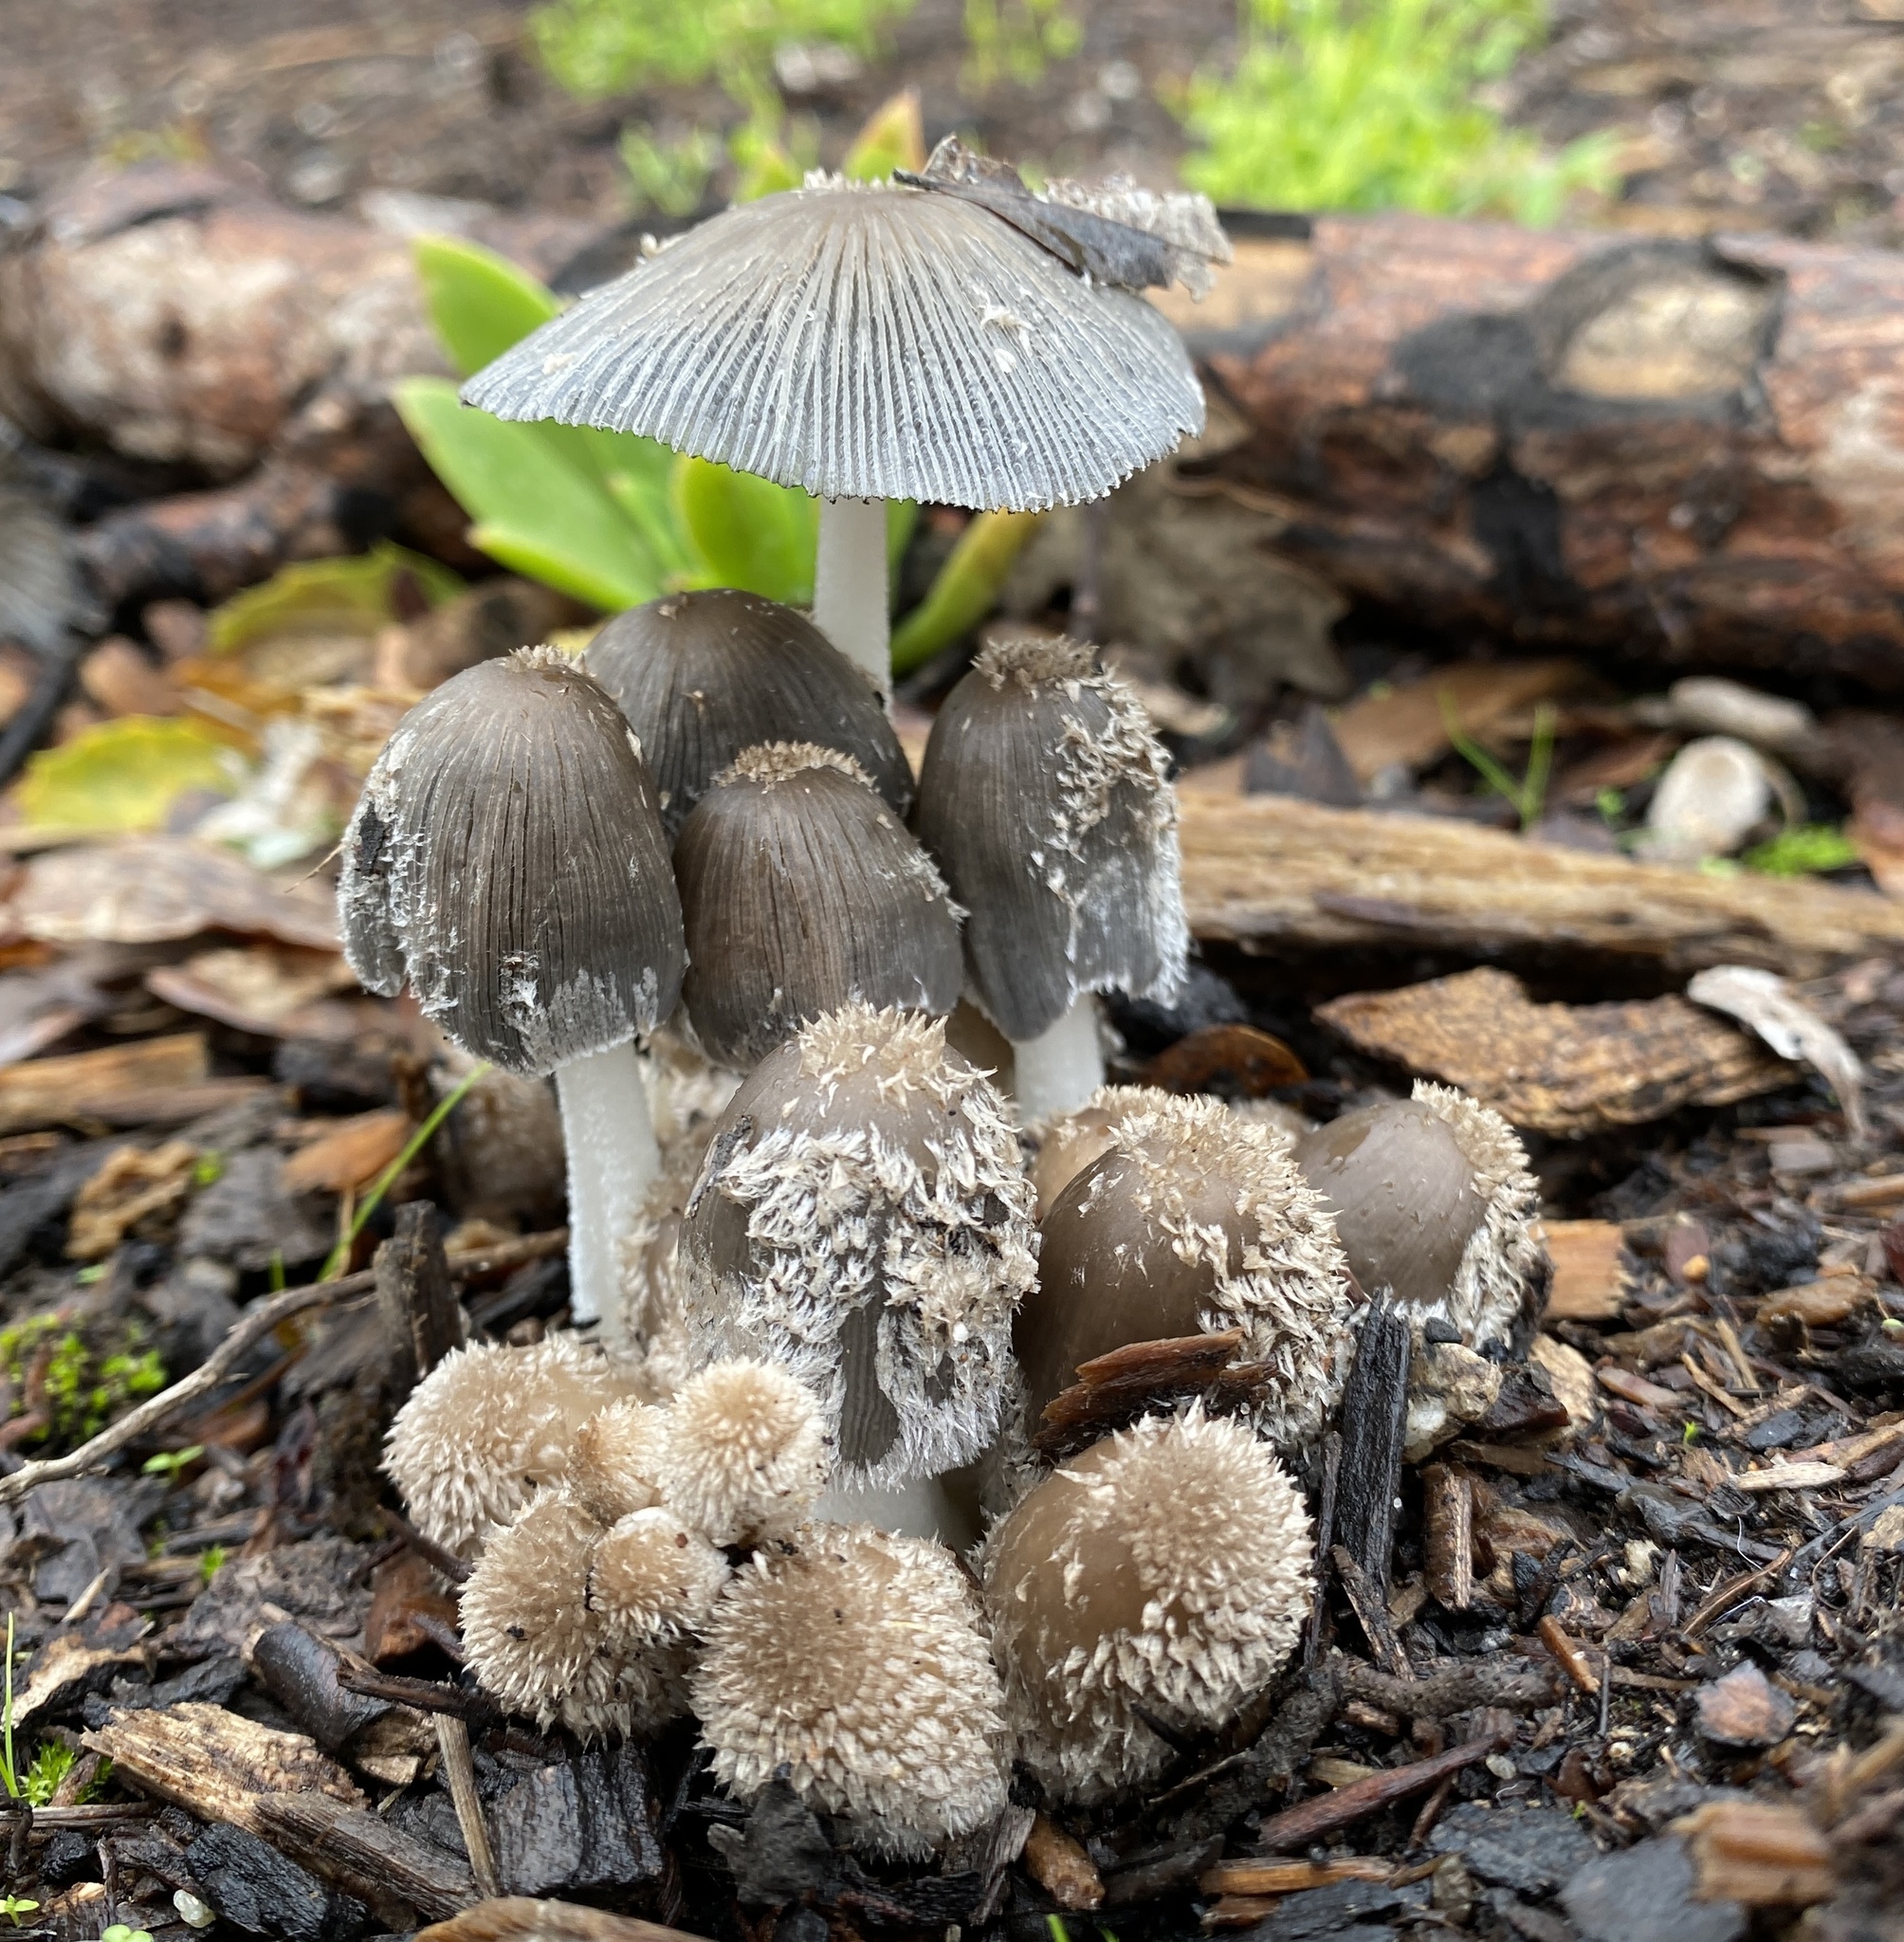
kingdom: Fungi
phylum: Basidiomycota
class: Agaricomycetes
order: Agaricales
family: Psathyrellaceae
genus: Coprinopsis
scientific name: Coprinopsis lagopus
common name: Hare'sfoot inkcap
